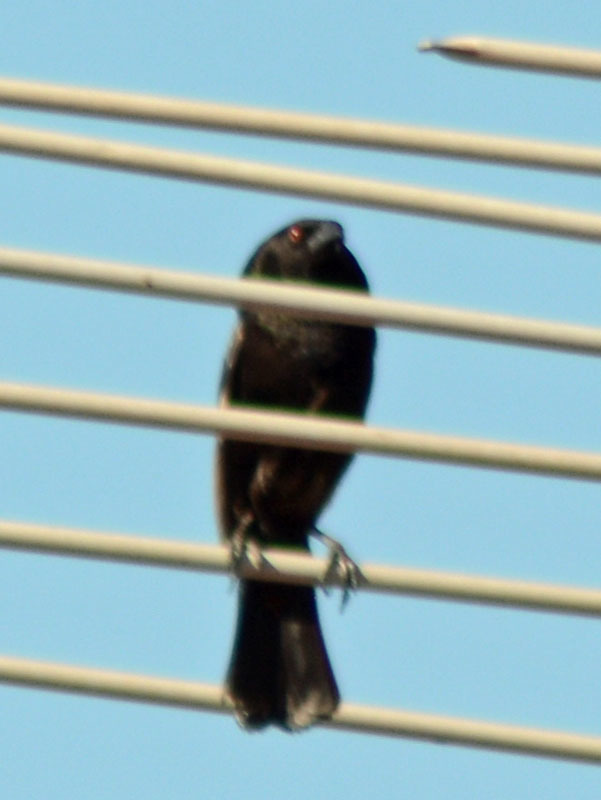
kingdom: Animalia
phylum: Chordata
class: Aves
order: Passeriformes
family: Icteridae
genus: Molothrus
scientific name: Molothrus aeneus
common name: Bronzed cowbird
